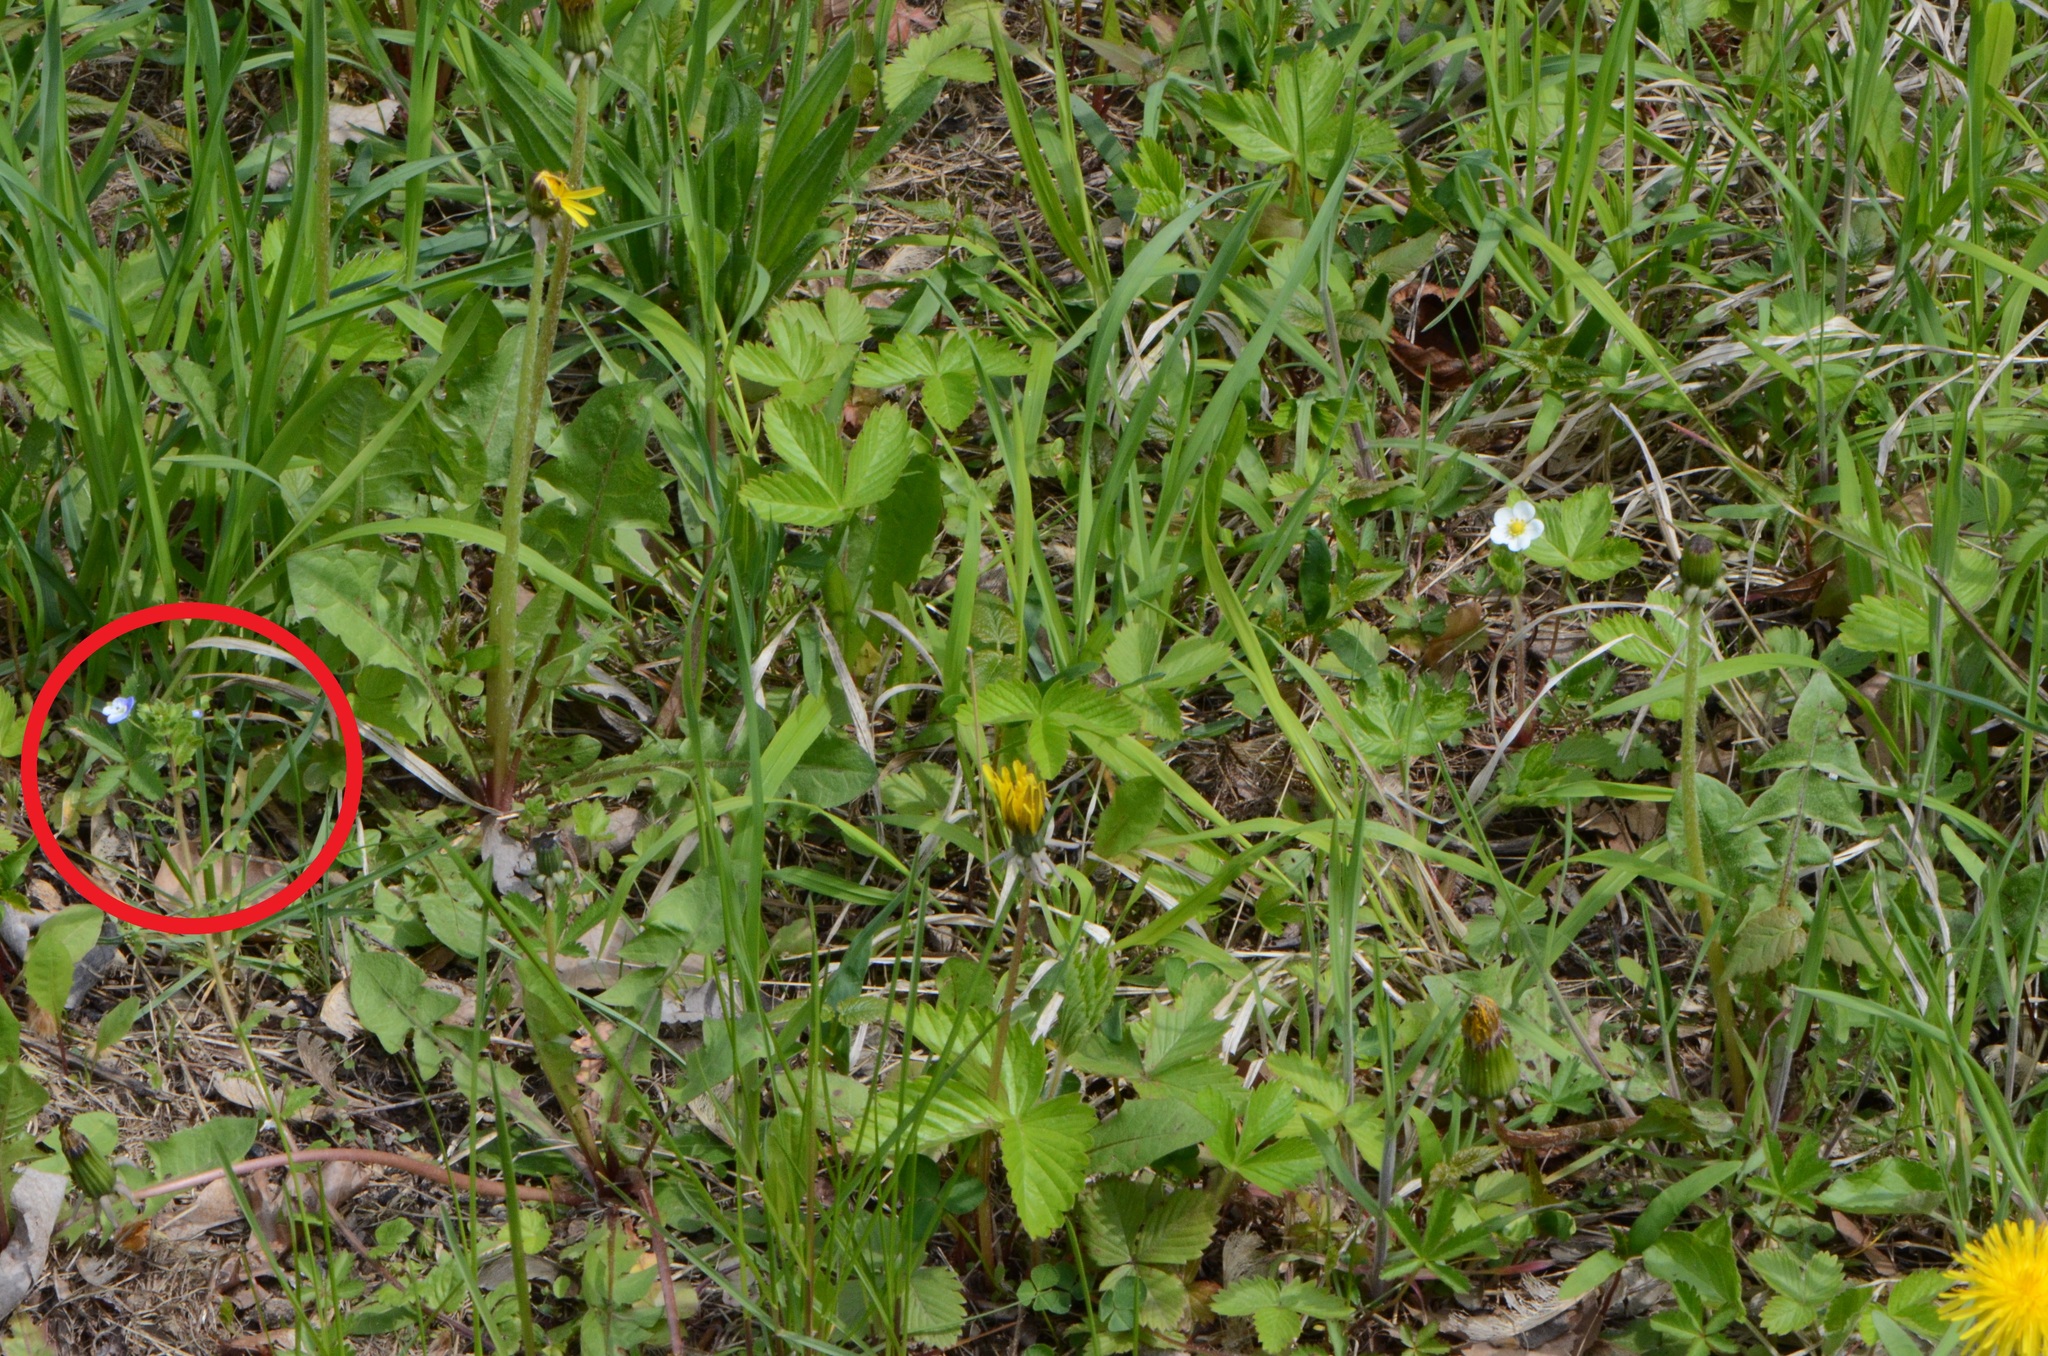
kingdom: Plantae
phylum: Tracheophyta
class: Magnoliopsida
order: Lamiales
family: Plantaginaceae
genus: Veronica
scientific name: Veronica persica
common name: Common field-speedwell
